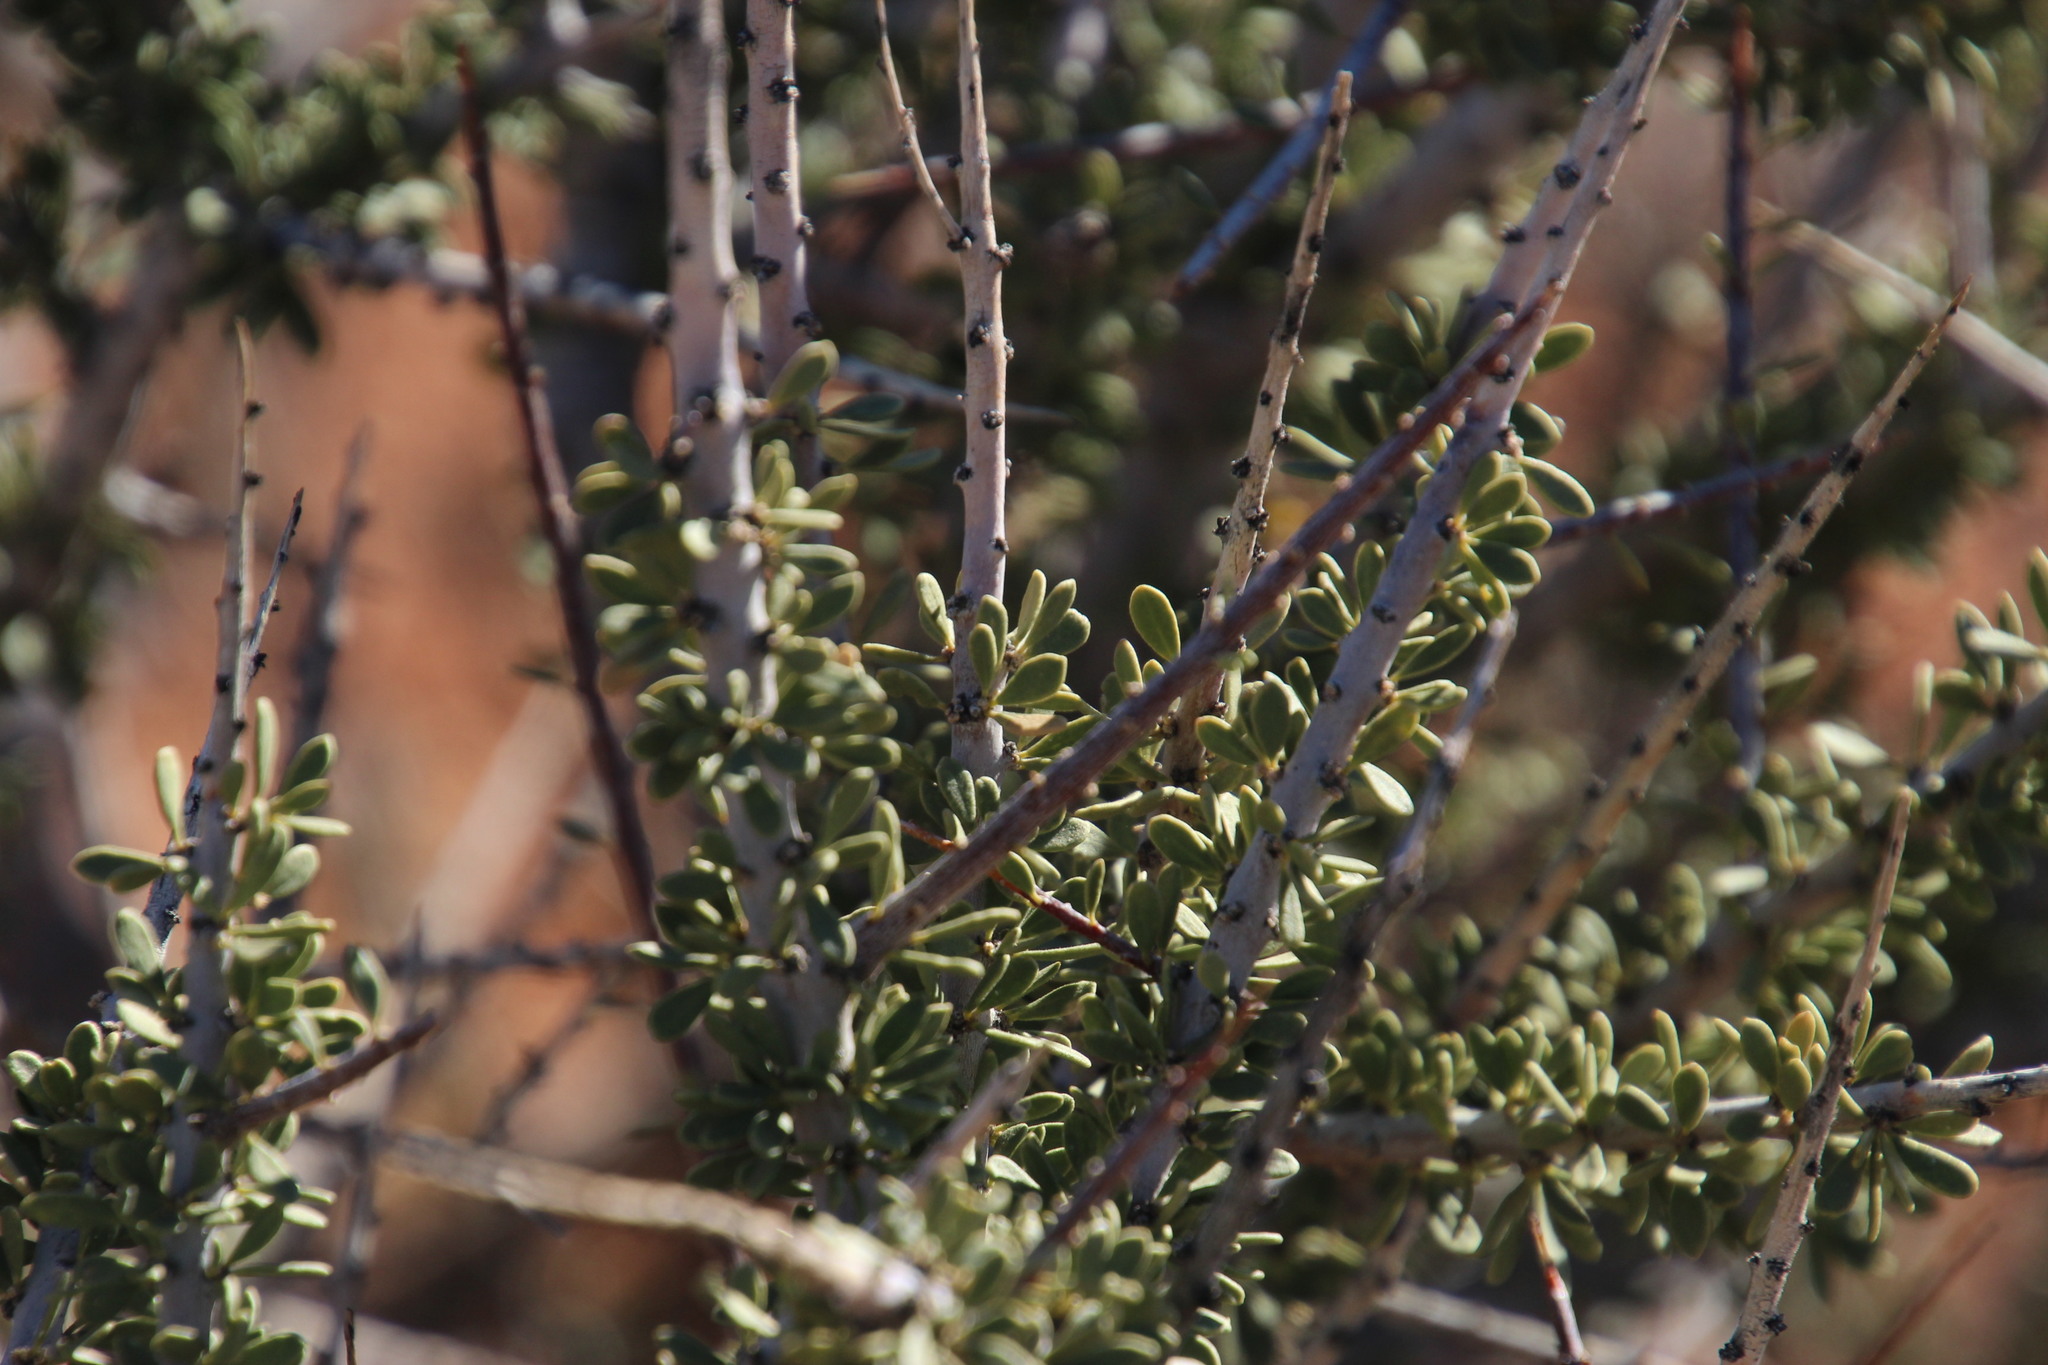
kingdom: Plantae
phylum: Tracheophyta
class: Magnoliopsida
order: Brassicales
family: Capparaceae
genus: Boscia
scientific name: Boscia foetida
